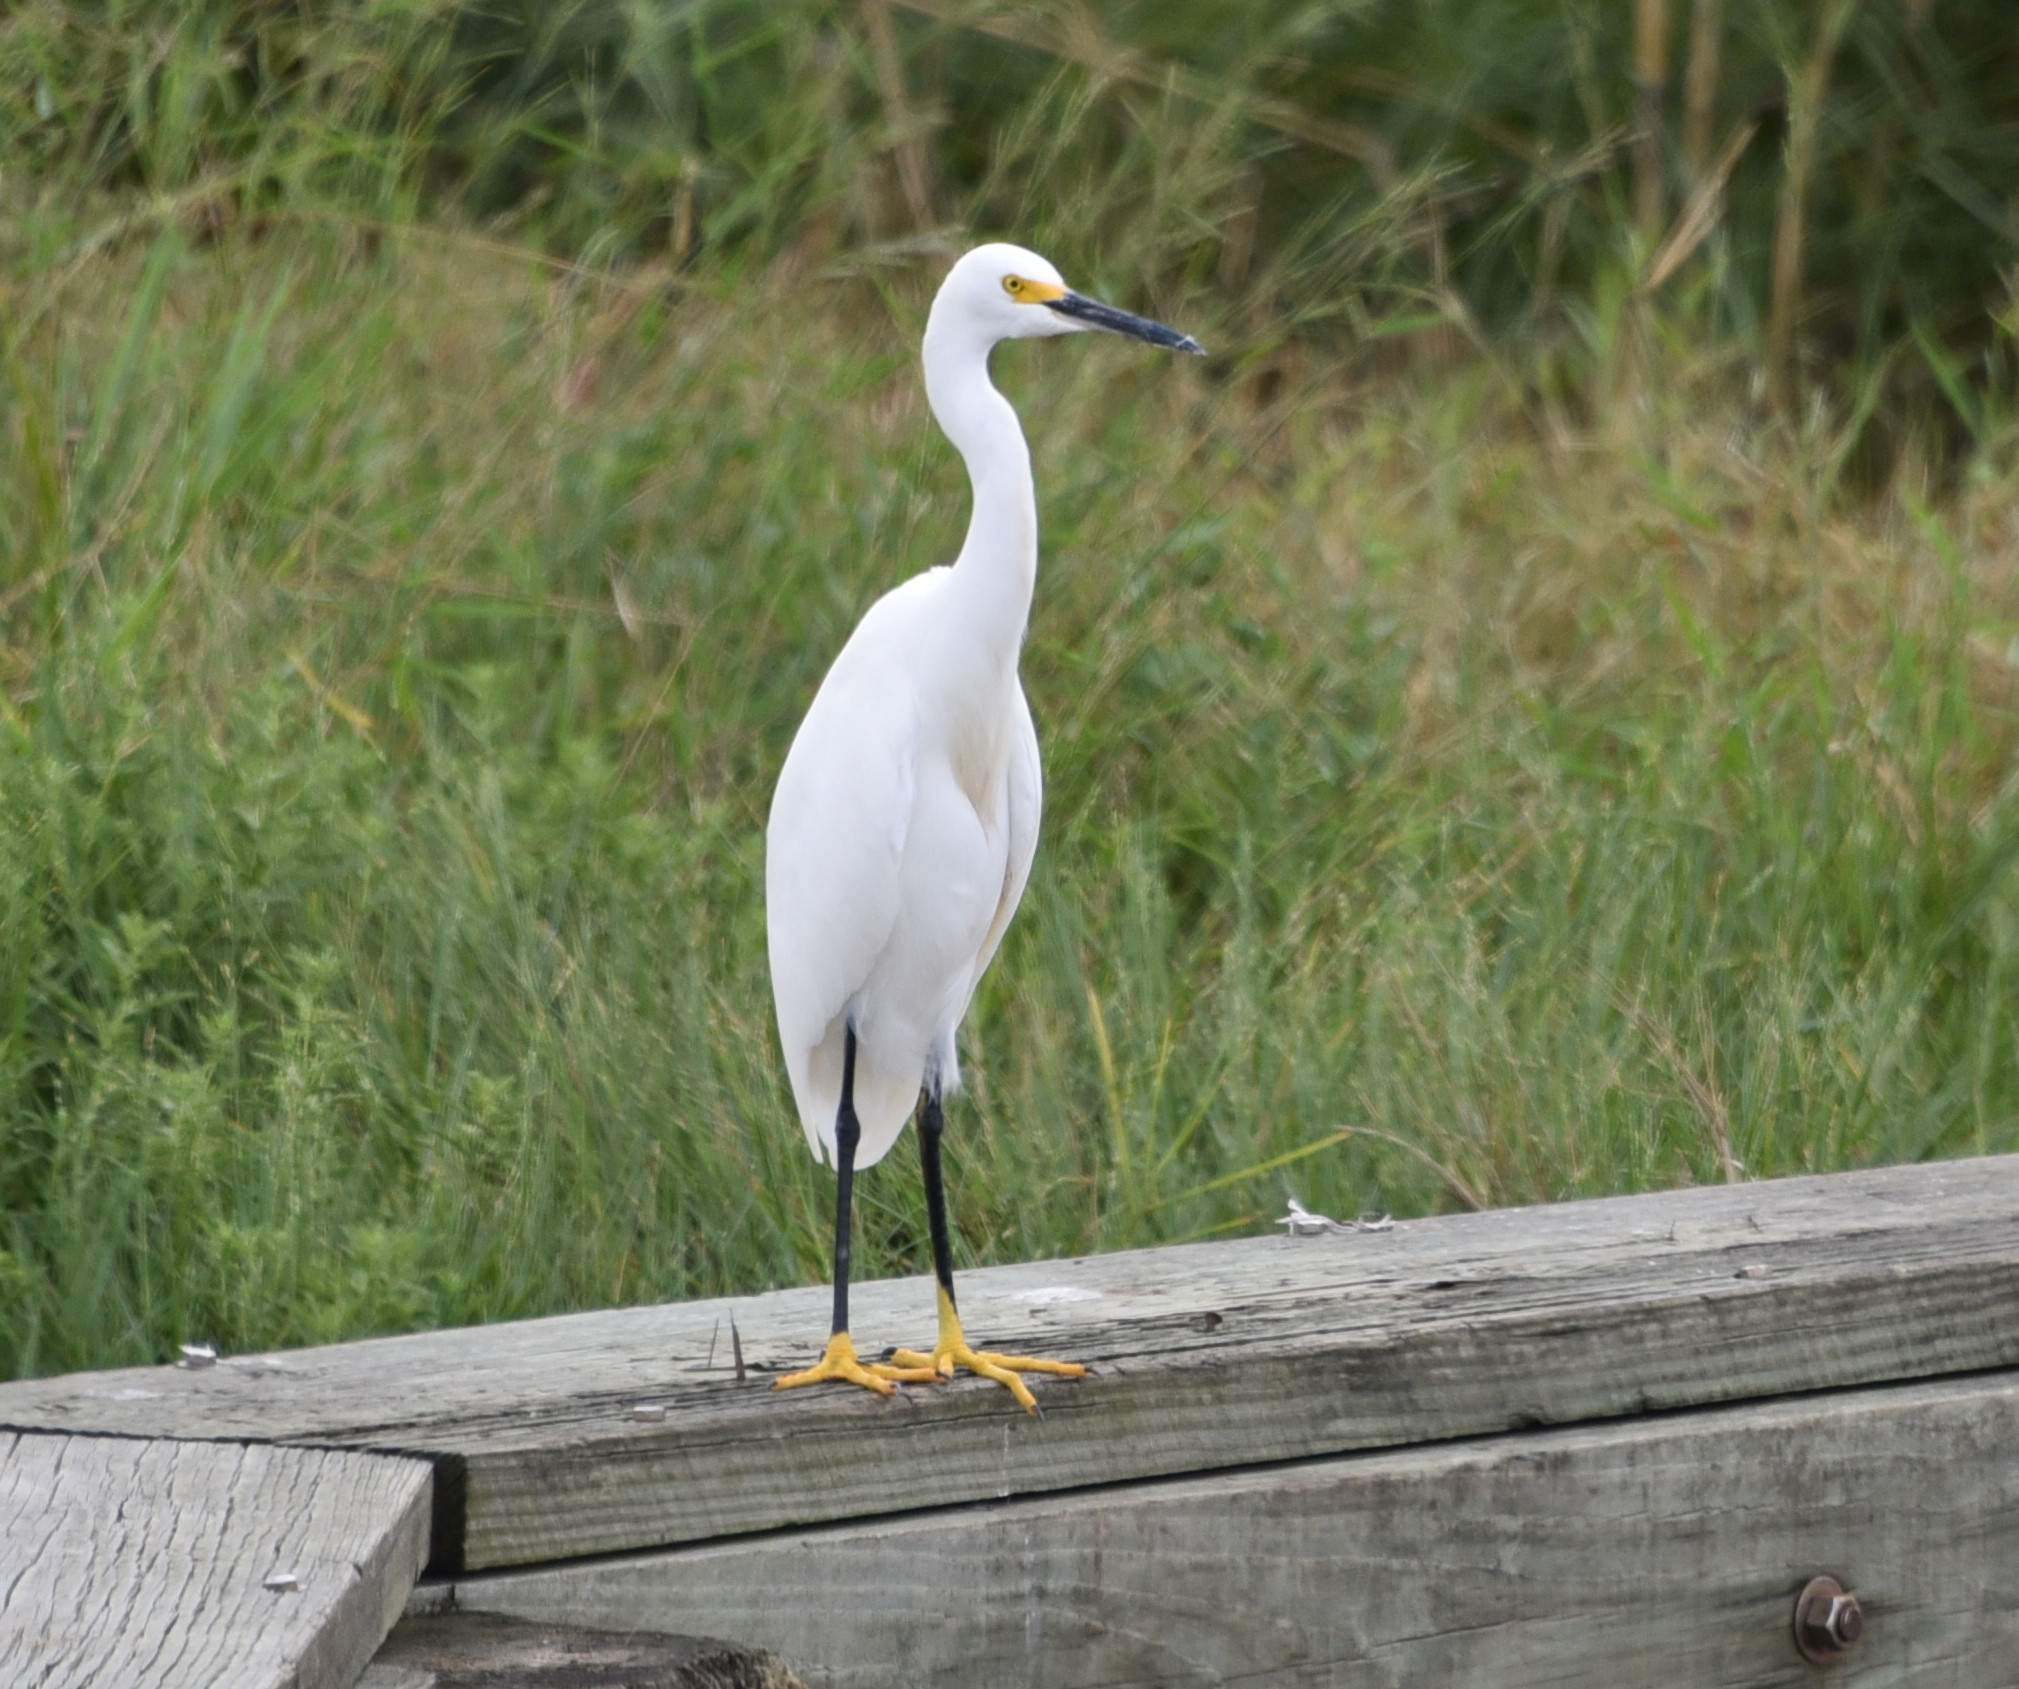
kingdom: Animalia
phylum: Chordata
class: Aves
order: Pelecaniformes
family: Ardeidae
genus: Egretta
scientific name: Egretta thula
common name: Snowy egret
